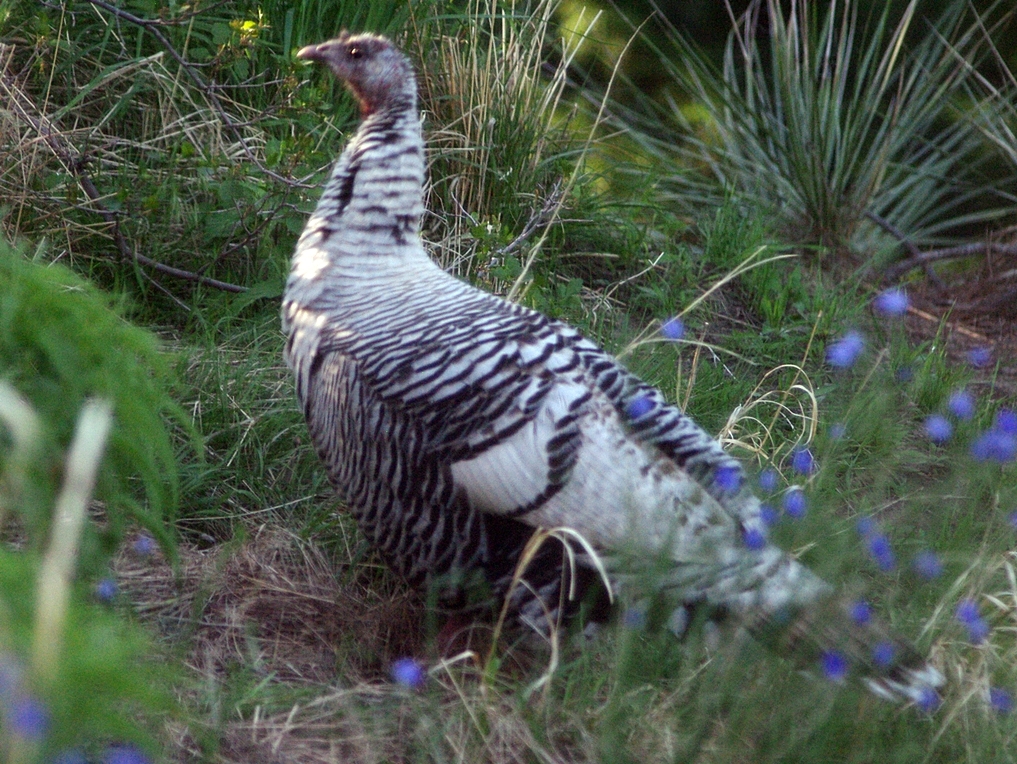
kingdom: Animalia
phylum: Chordata
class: Aves
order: Galliformes
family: Phasianidae
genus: Meleagris
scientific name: Meleagris gallopavo
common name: Wild turkey
